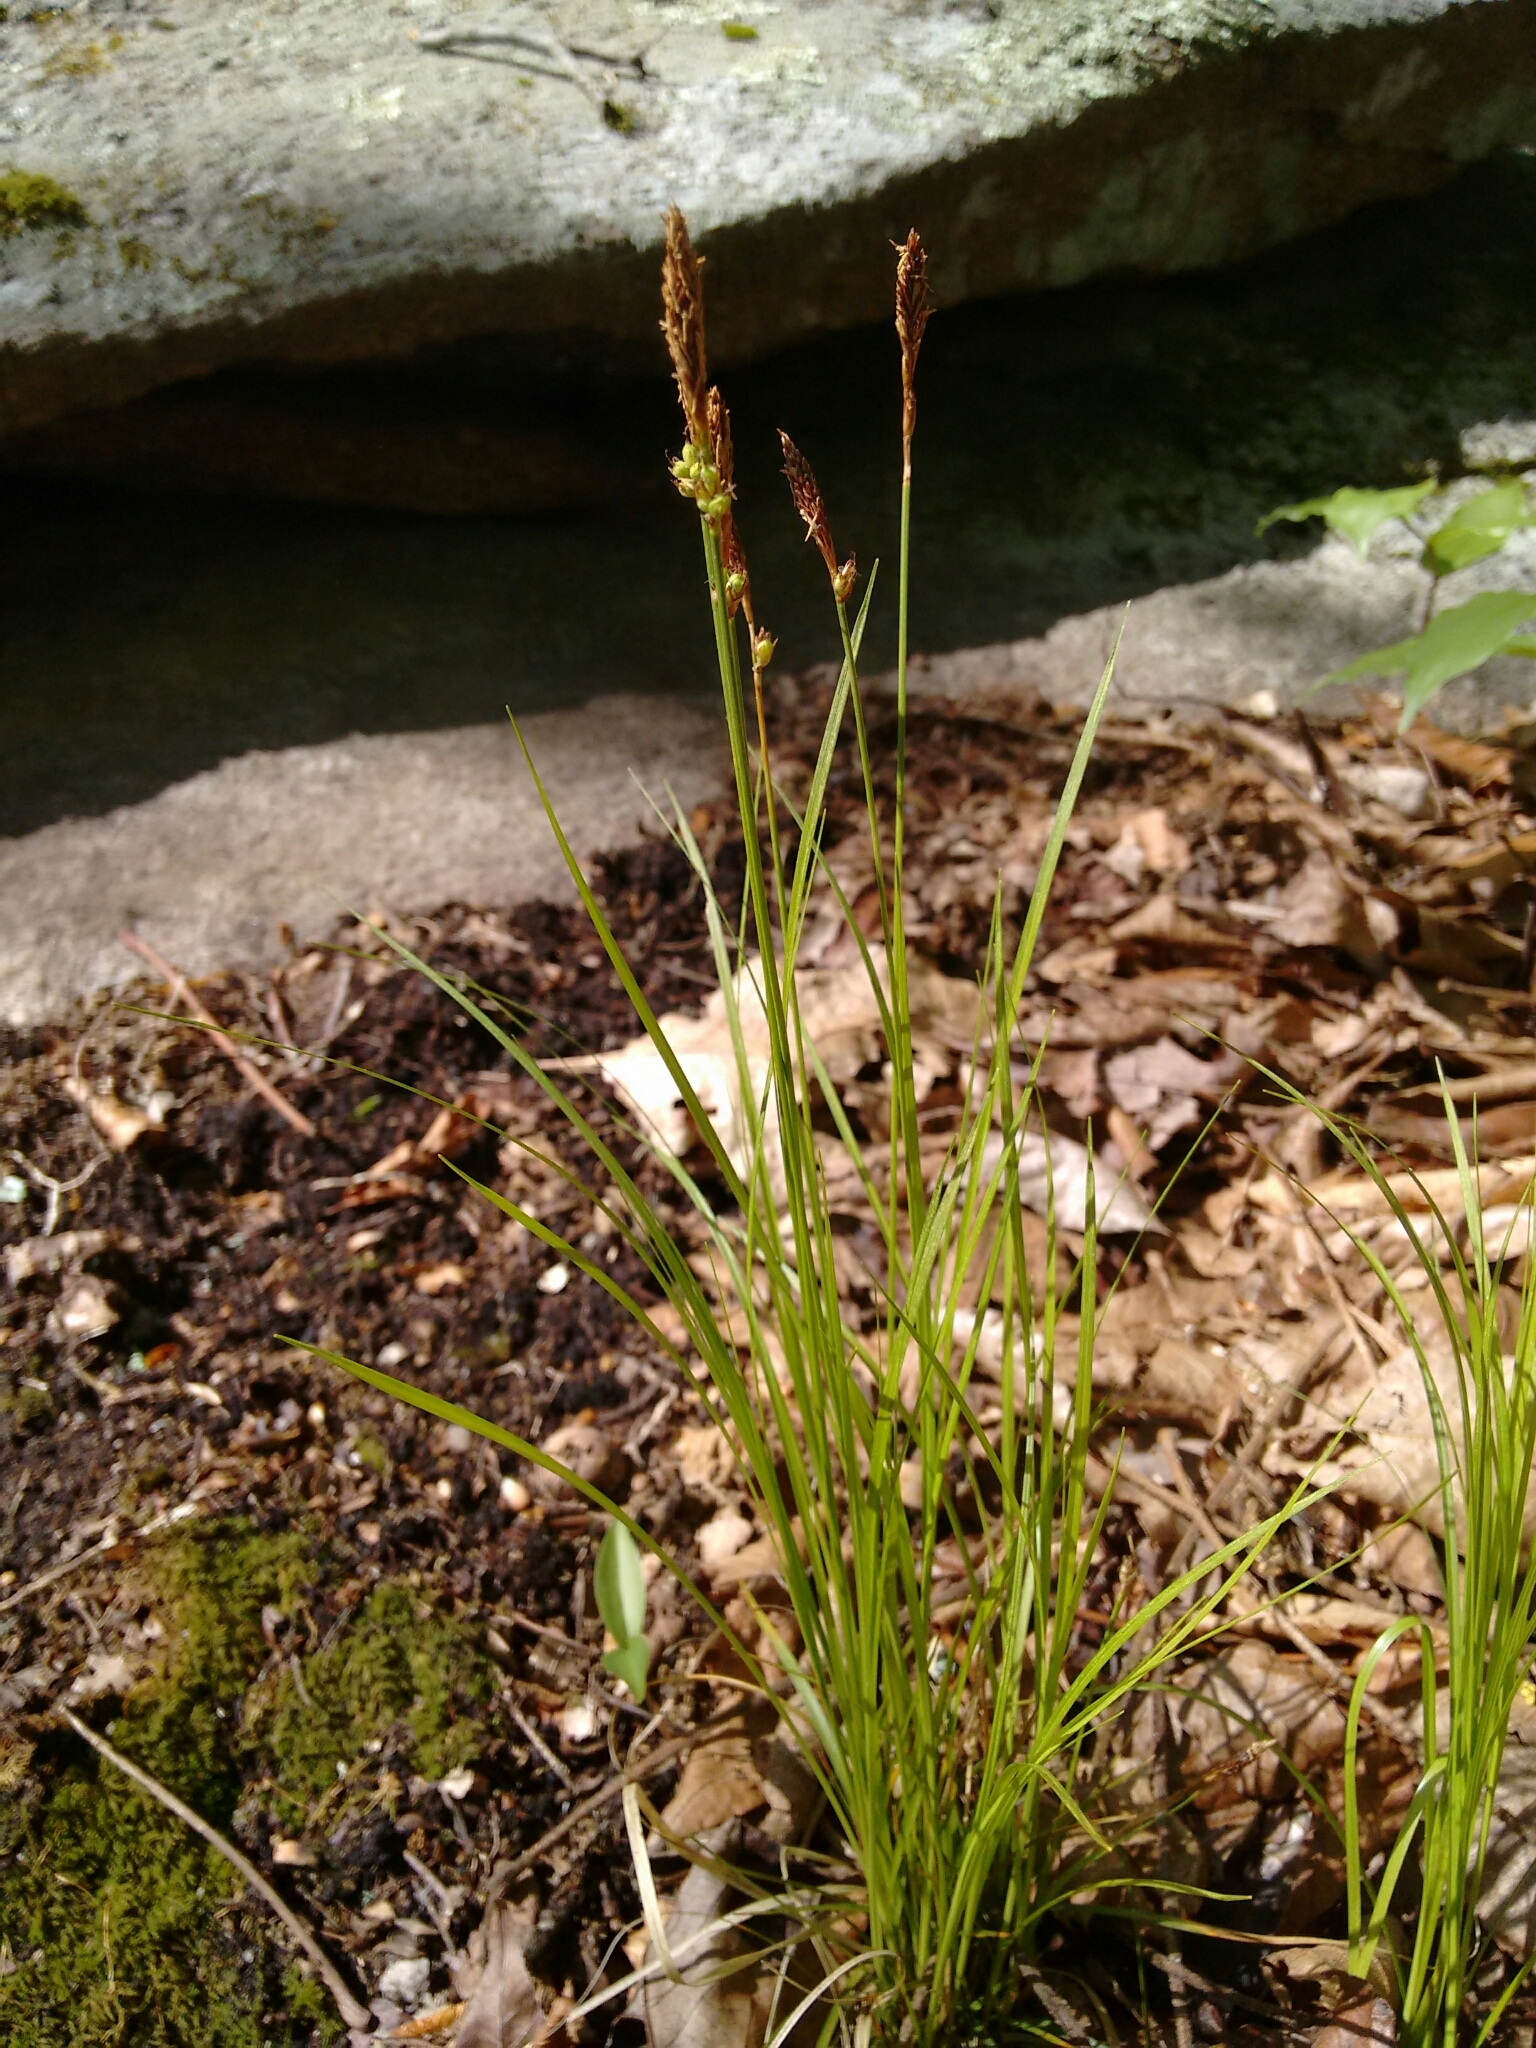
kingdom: Plantae
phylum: Tracheophyta
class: Liliopsida
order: Poales
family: Cyperaceae
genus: Carex
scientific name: Carex pensylvanica
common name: Common oak sedge
